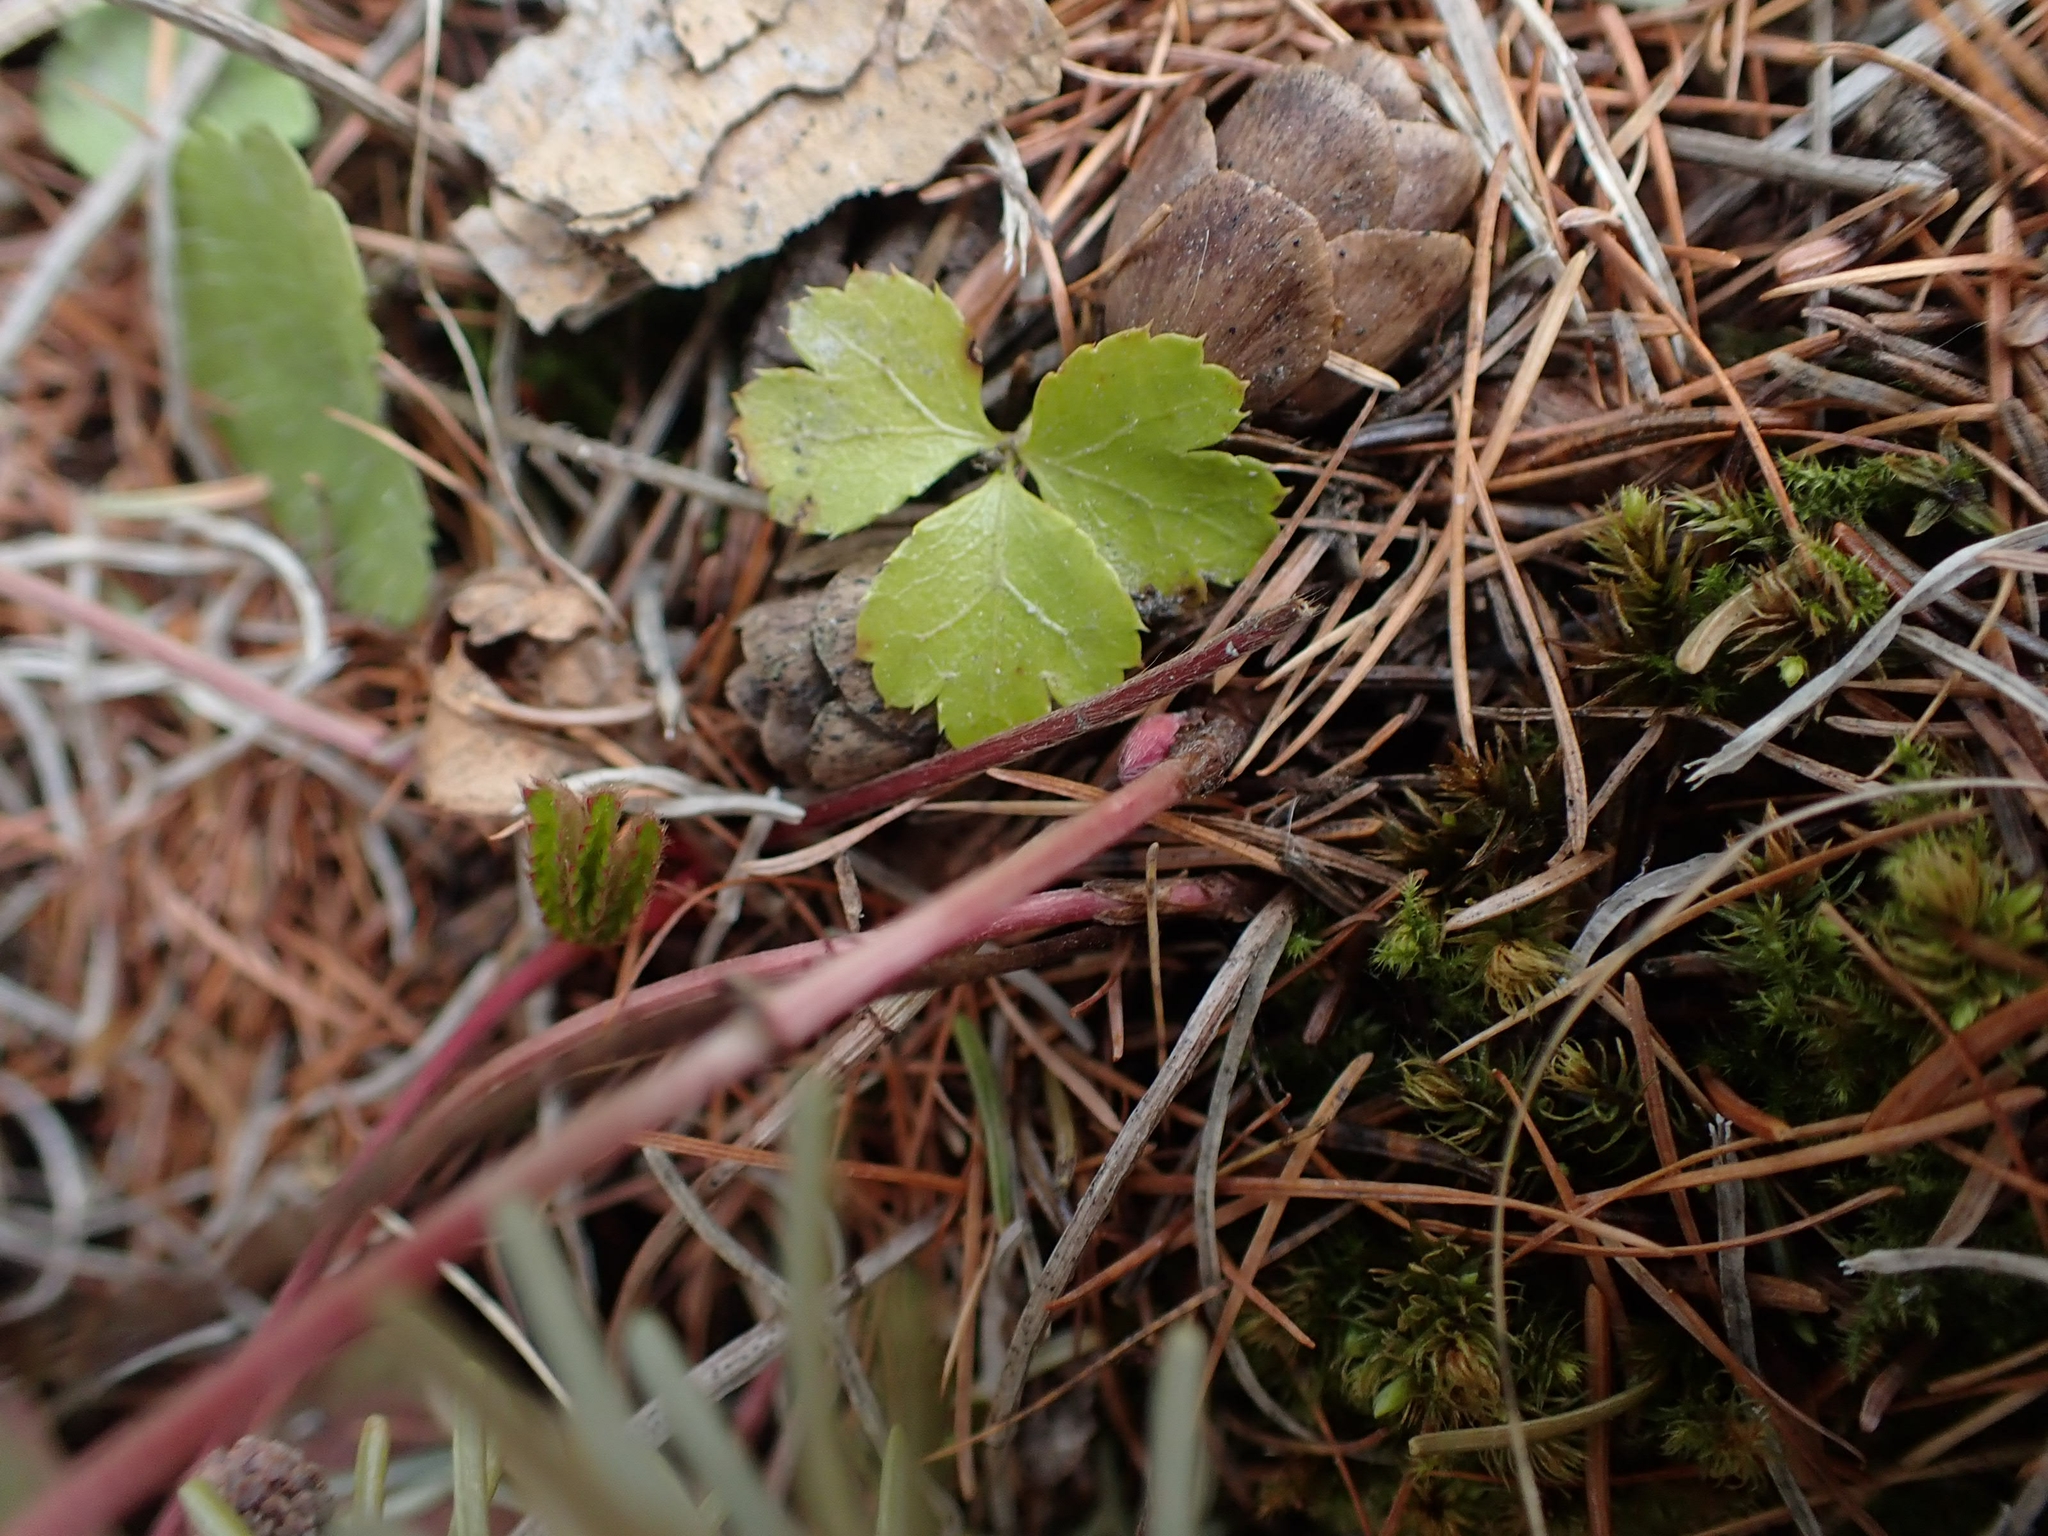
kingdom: Plantae
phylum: Tracheophyta
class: Magnoliopsida
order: Ranunculales
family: Ranunculaceae
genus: Coptis
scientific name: Coptis trifolia
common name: Canker-root
